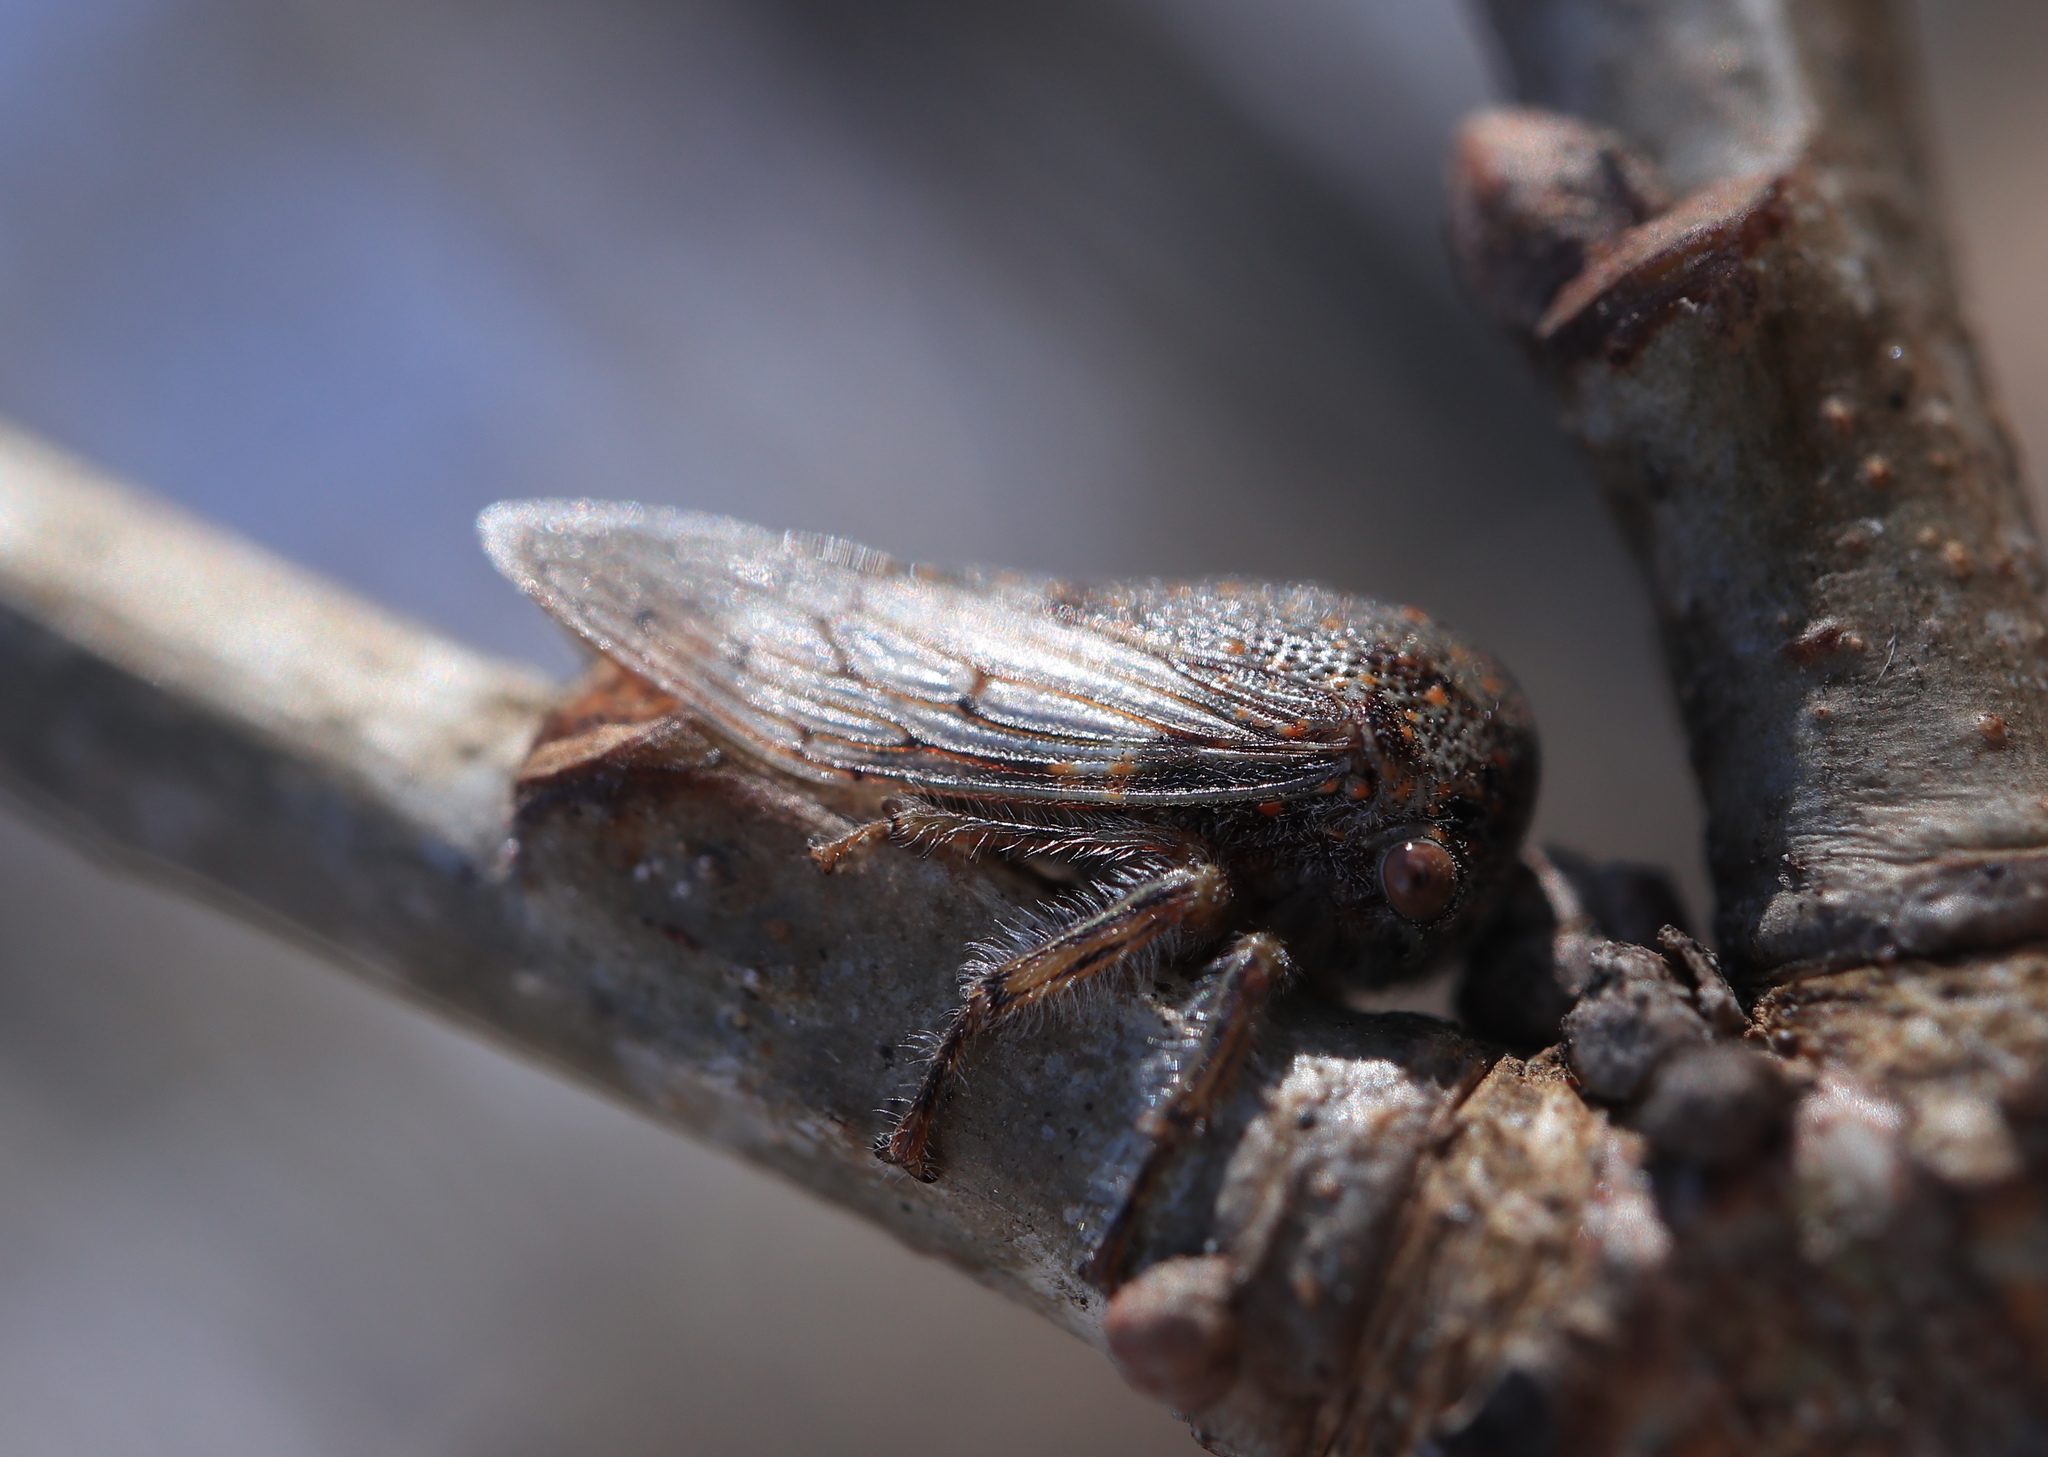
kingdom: Animalia
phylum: Arthropoda
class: Insecta
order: Hemiptera
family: Membracidae
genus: Platycotis
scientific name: Platycotis vittatus
